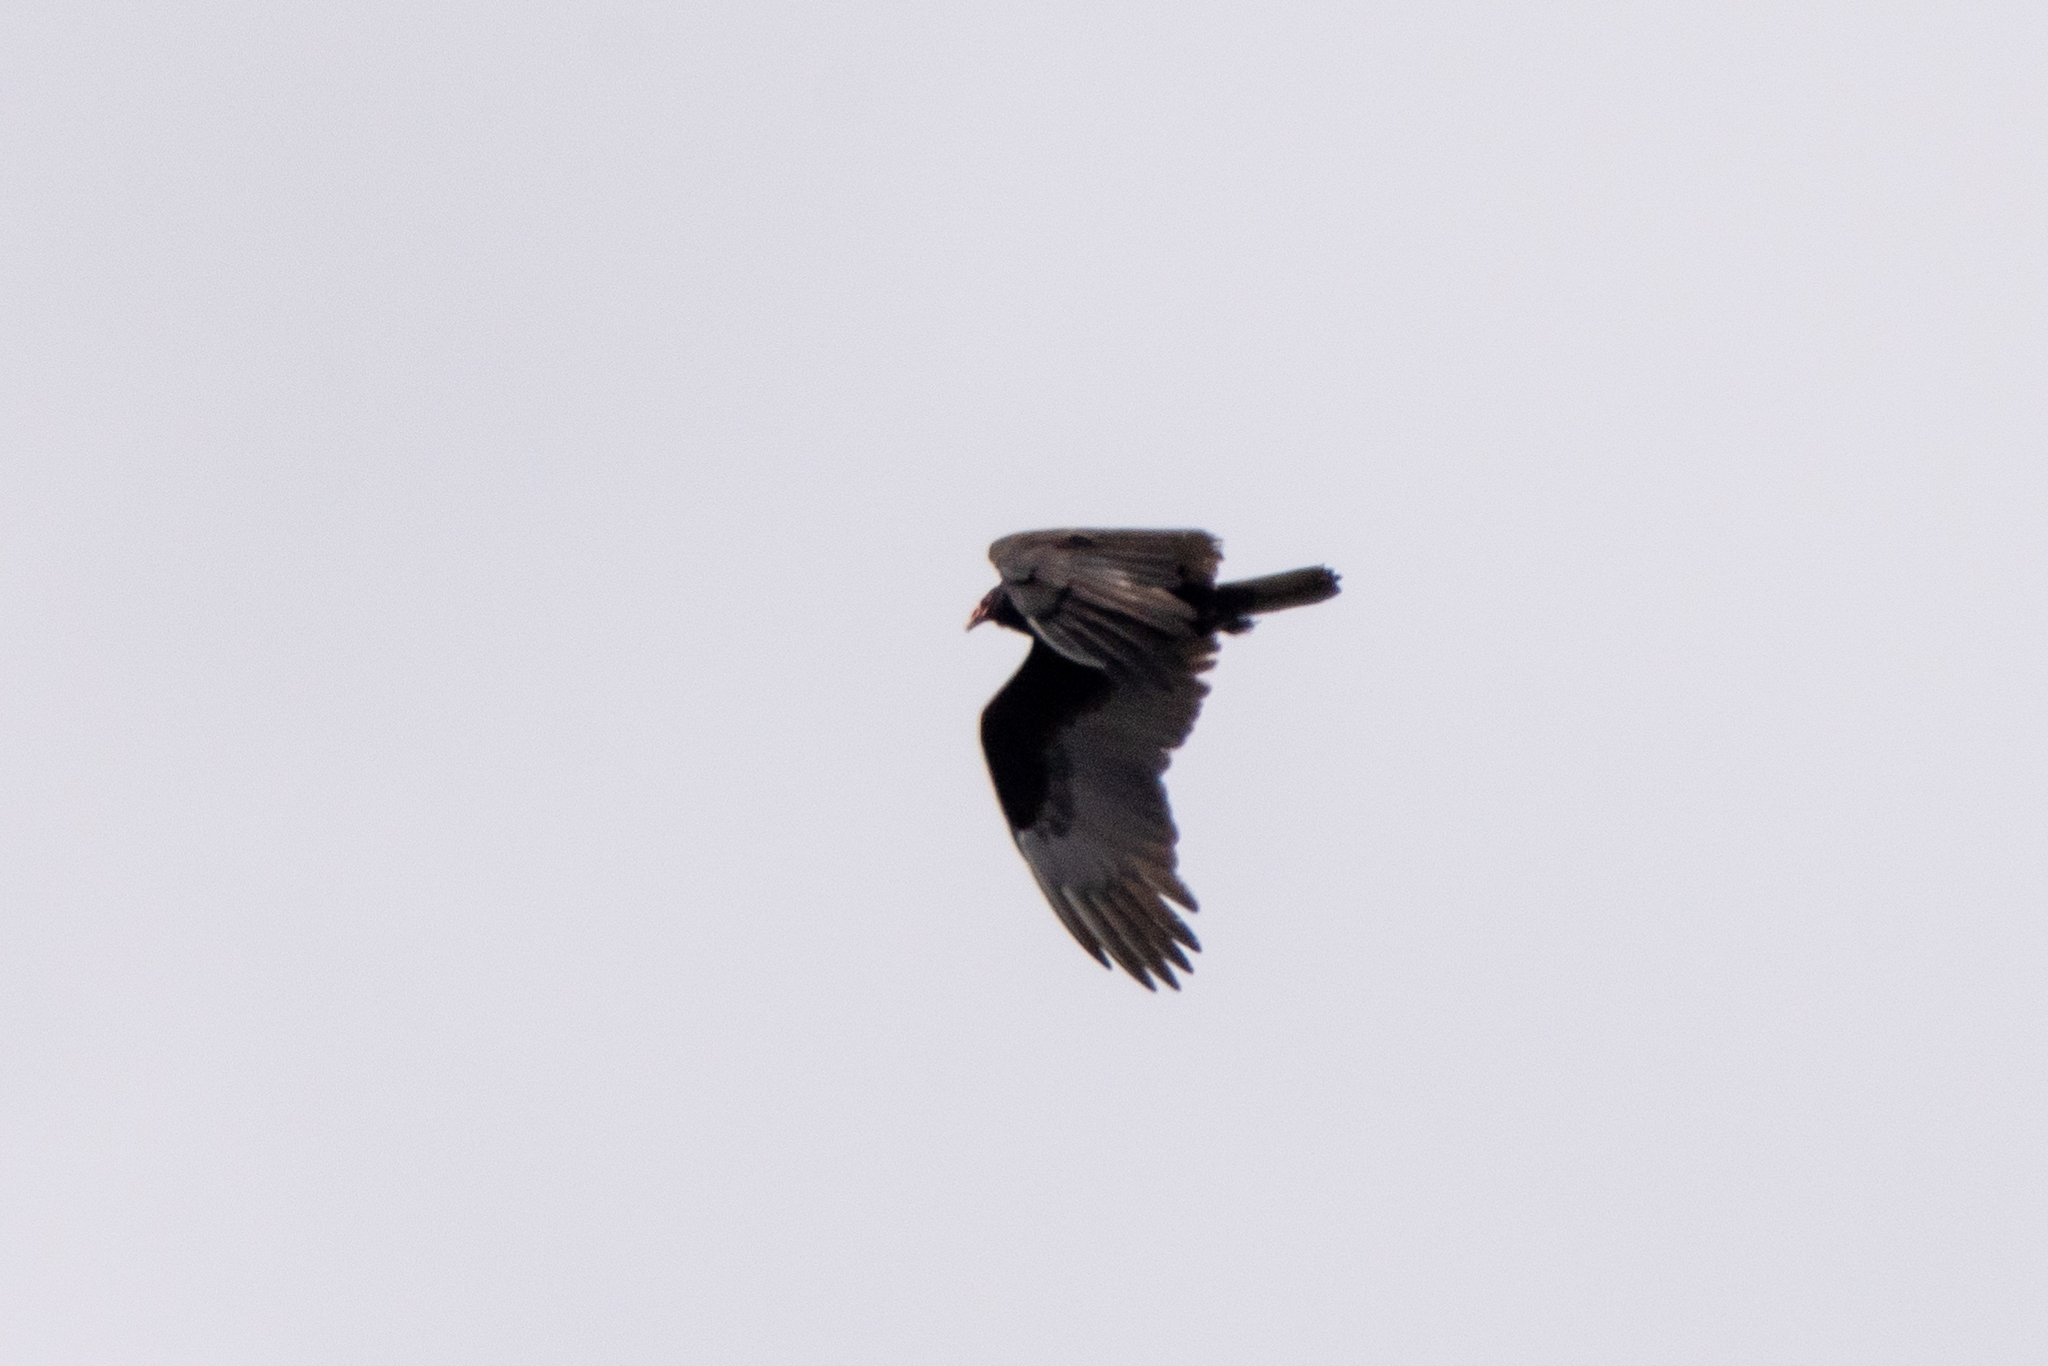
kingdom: Animalia
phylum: Chordata
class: Aves
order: Accipitriformes
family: Cathartidae
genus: Cathartes
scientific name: Cathartes aura
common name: Turkey vulture
